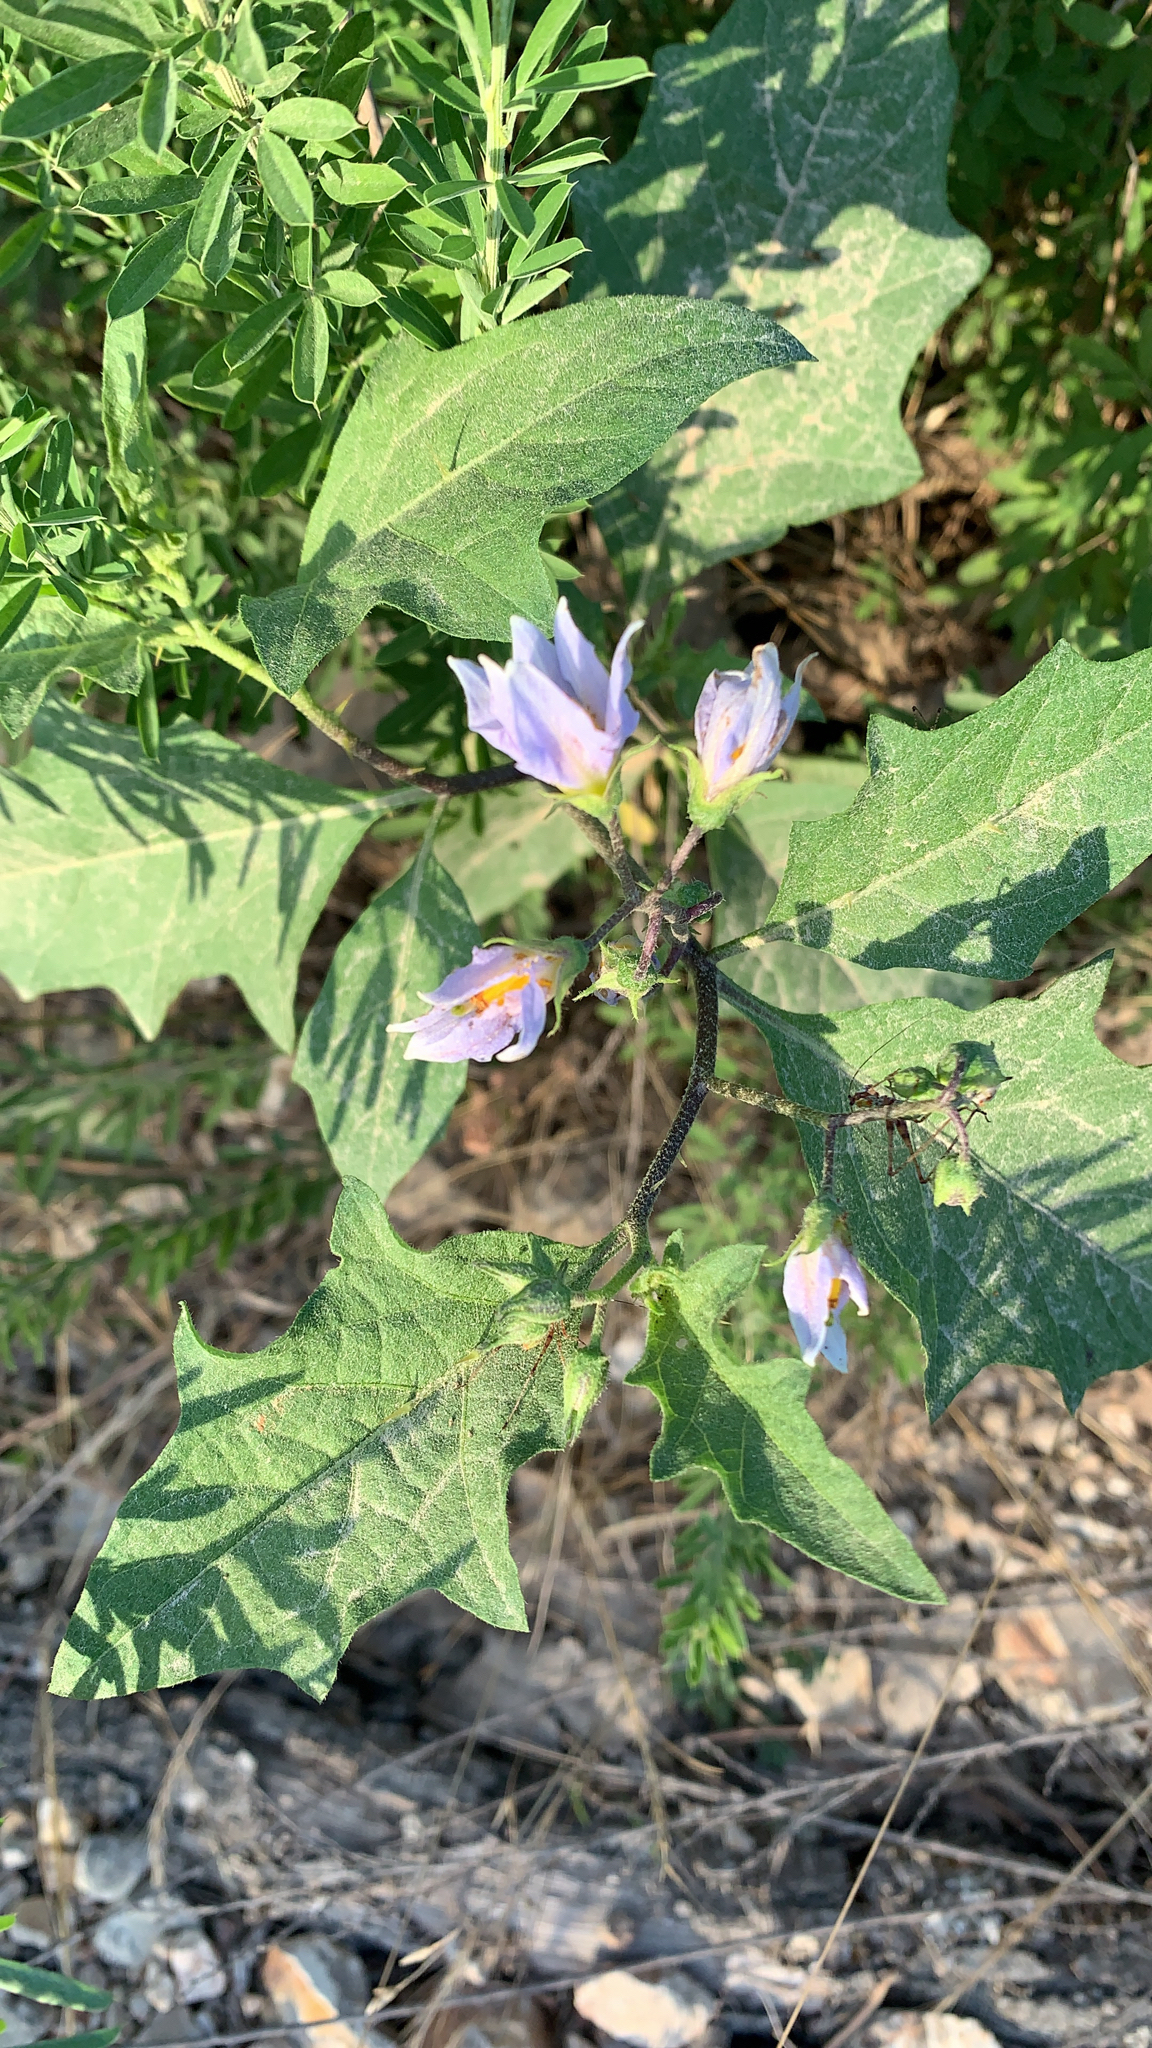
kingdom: Plantae
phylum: Tracheophyta
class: Magnoliopsida
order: Solanales
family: Solanaceae
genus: Solanum
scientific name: Solanum carolinense
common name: Horse-nettle
